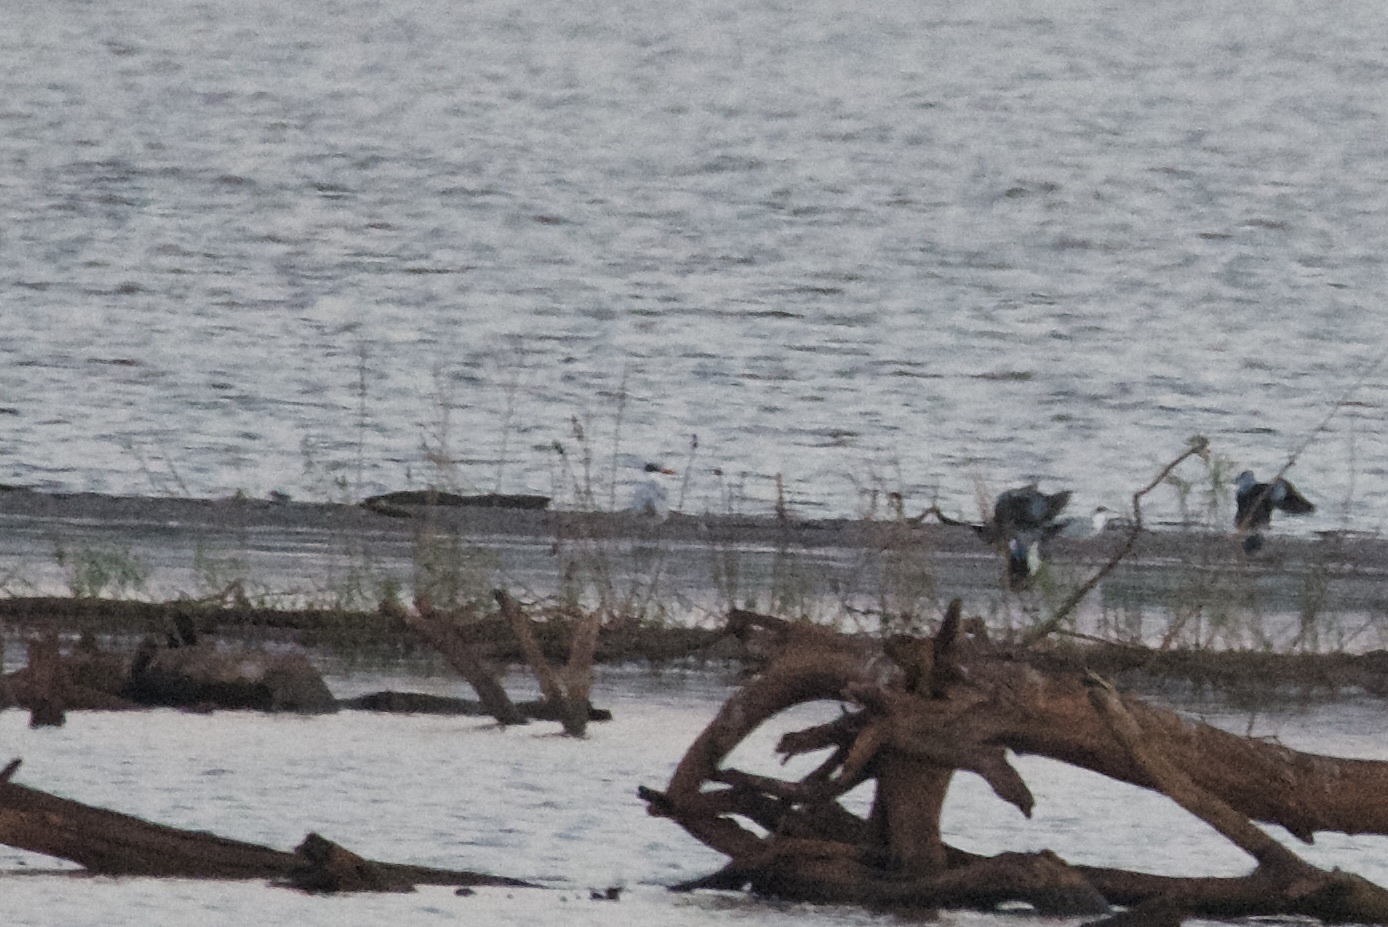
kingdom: Animalia
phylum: Chordata
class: Aves
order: Charadriiformes
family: Laridae
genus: Hydroprogne
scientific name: Hydroprogne caspia
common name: Caspian tern
